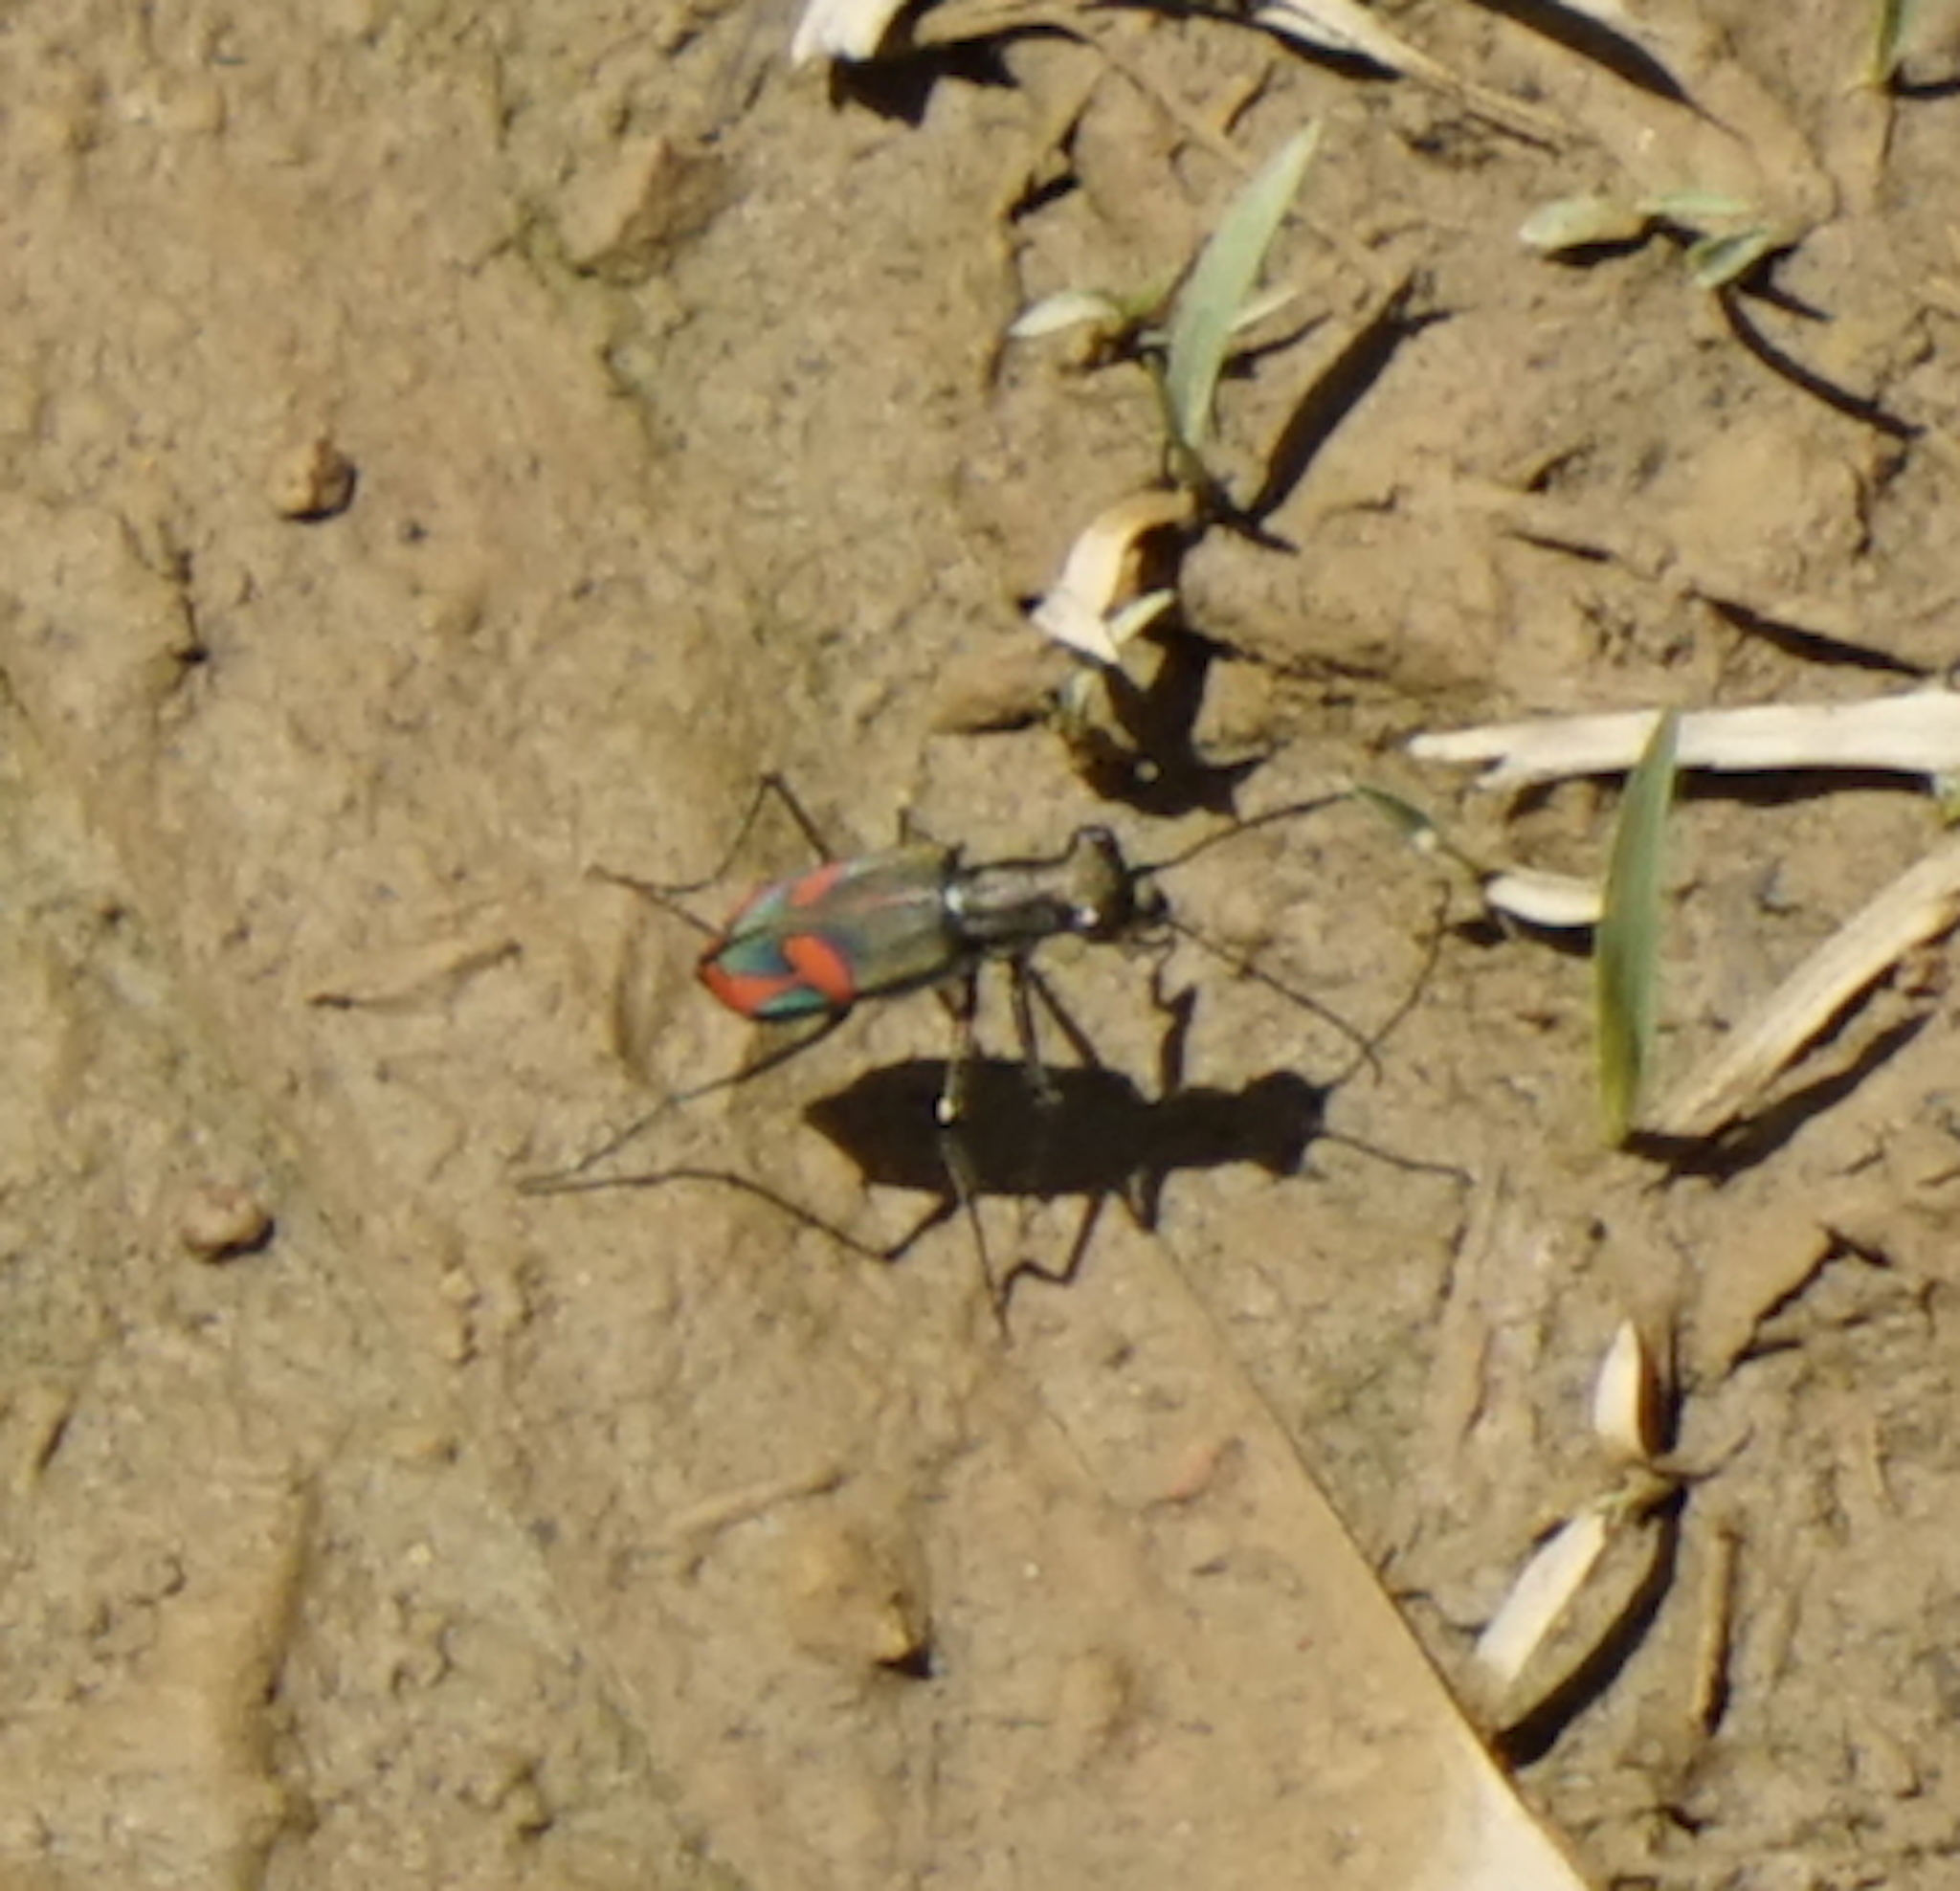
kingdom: Animalia
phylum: Arthropoda
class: Insecta
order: Coleoptera
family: Carabidae
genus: Cicindela
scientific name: Cicindela crespignyi
